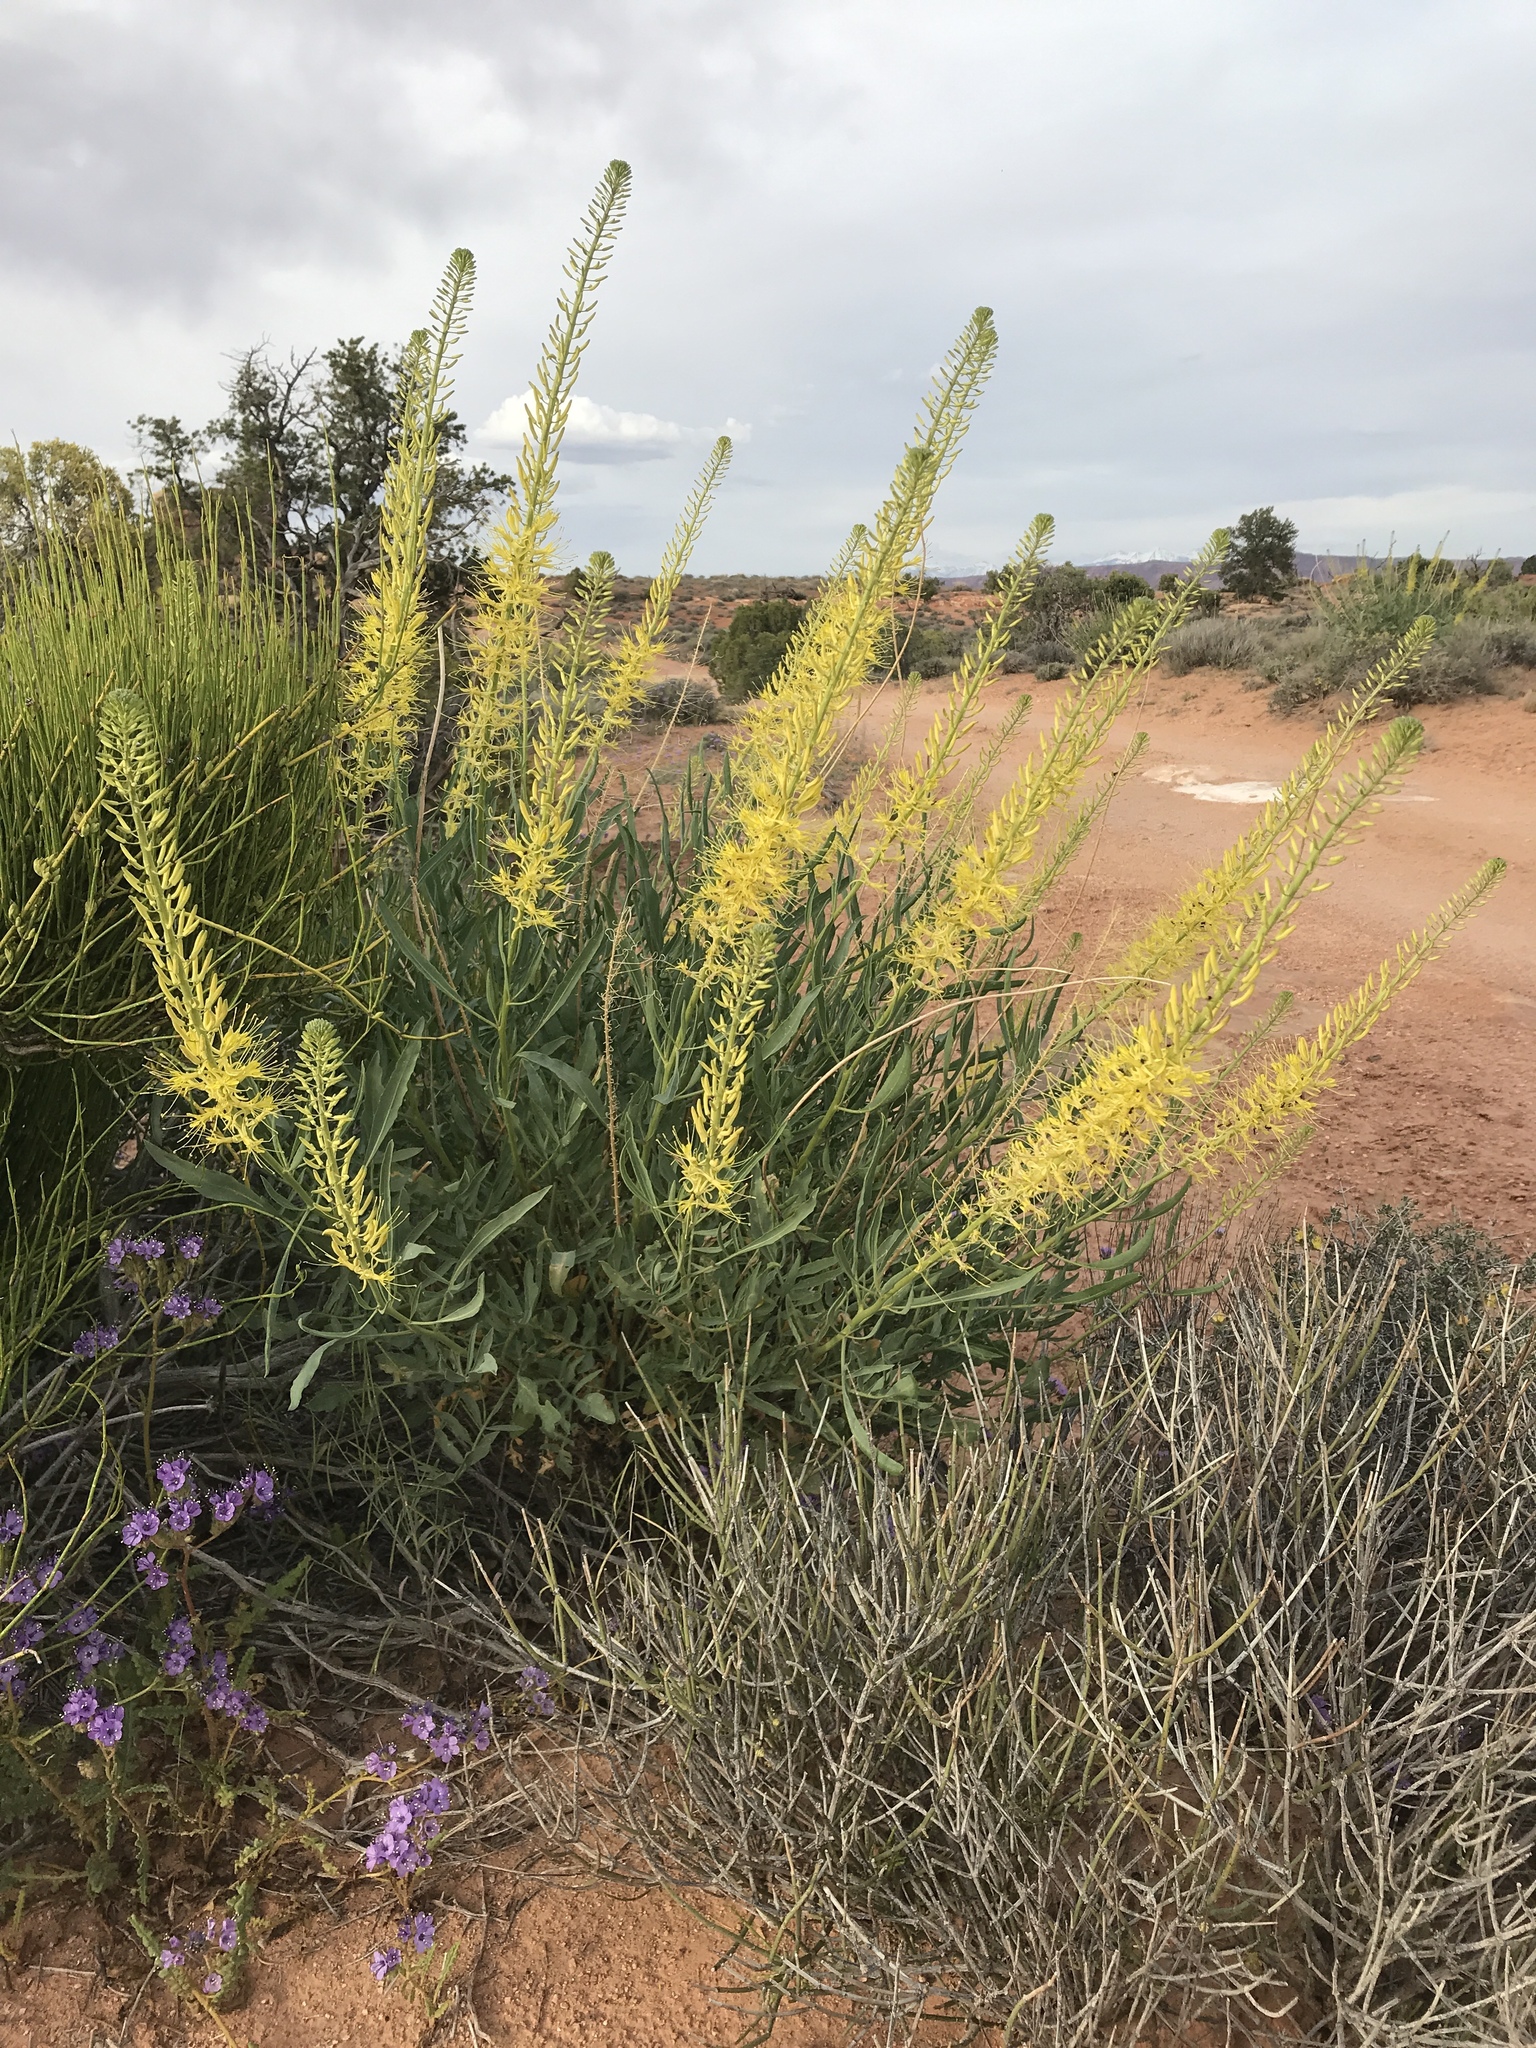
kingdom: Plantae
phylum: Tracheophyta
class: Magnoliopsida
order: Brassicales
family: Brassicaceae
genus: Stanleya
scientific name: Stanleya pinnata
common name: Prince's-plume
